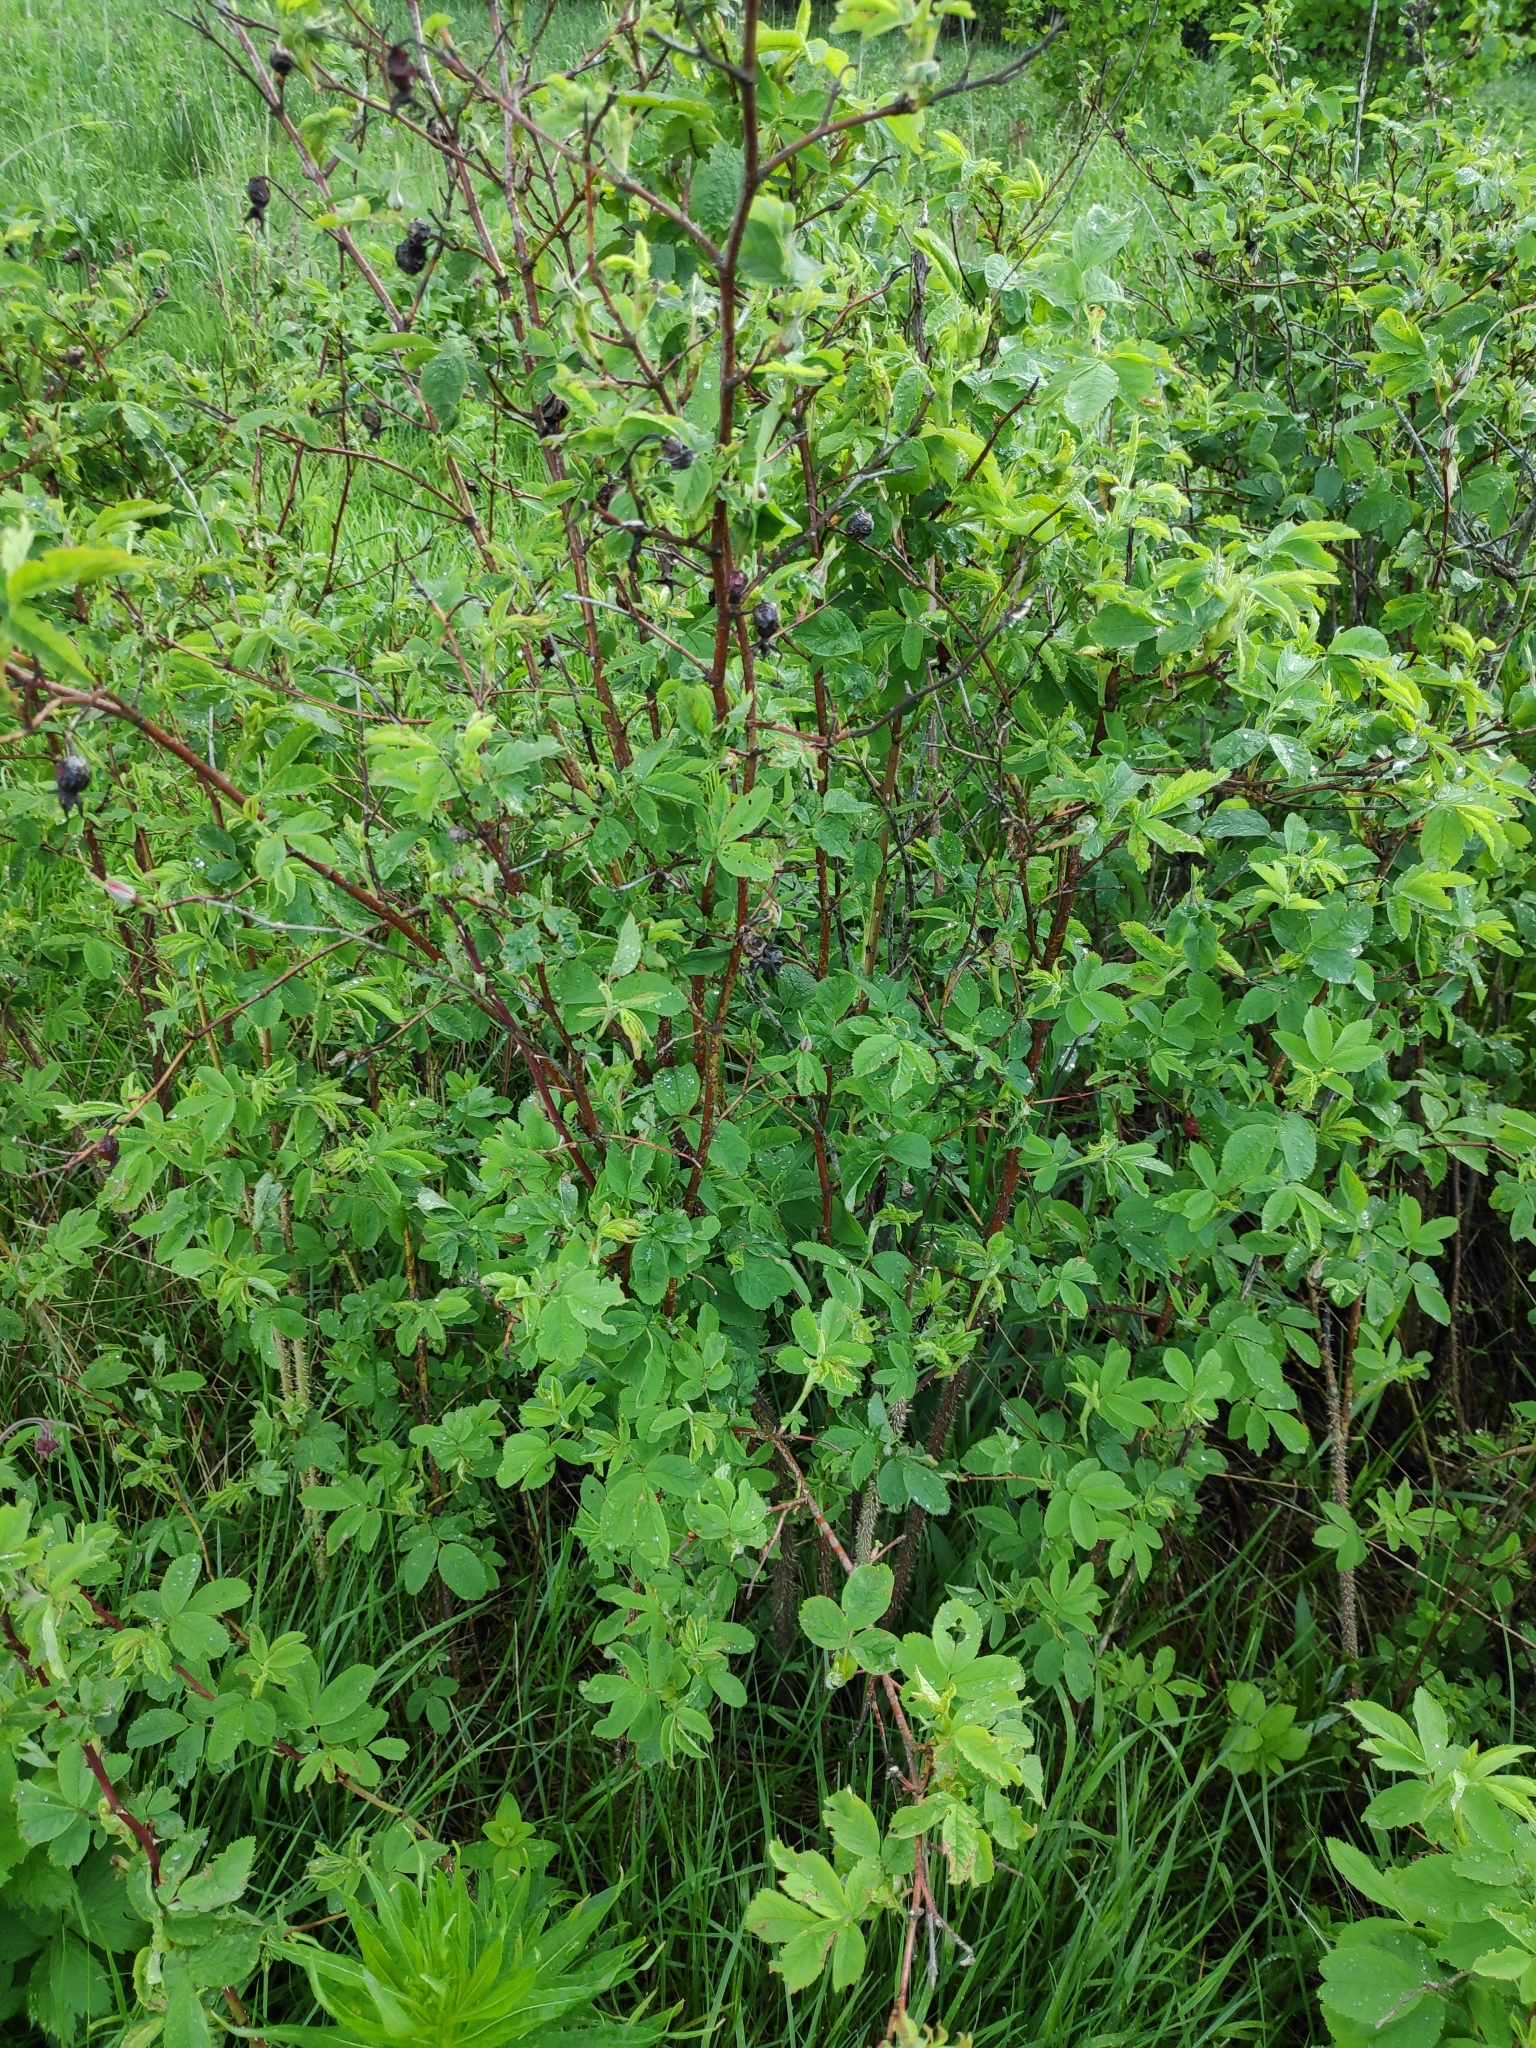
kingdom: Plantae
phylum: Tracheophyta
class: Magnoliopsida
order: Rosales
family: Rosaceae
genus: Rosa
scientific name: Rosa majalis
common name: Cinnamon rose
